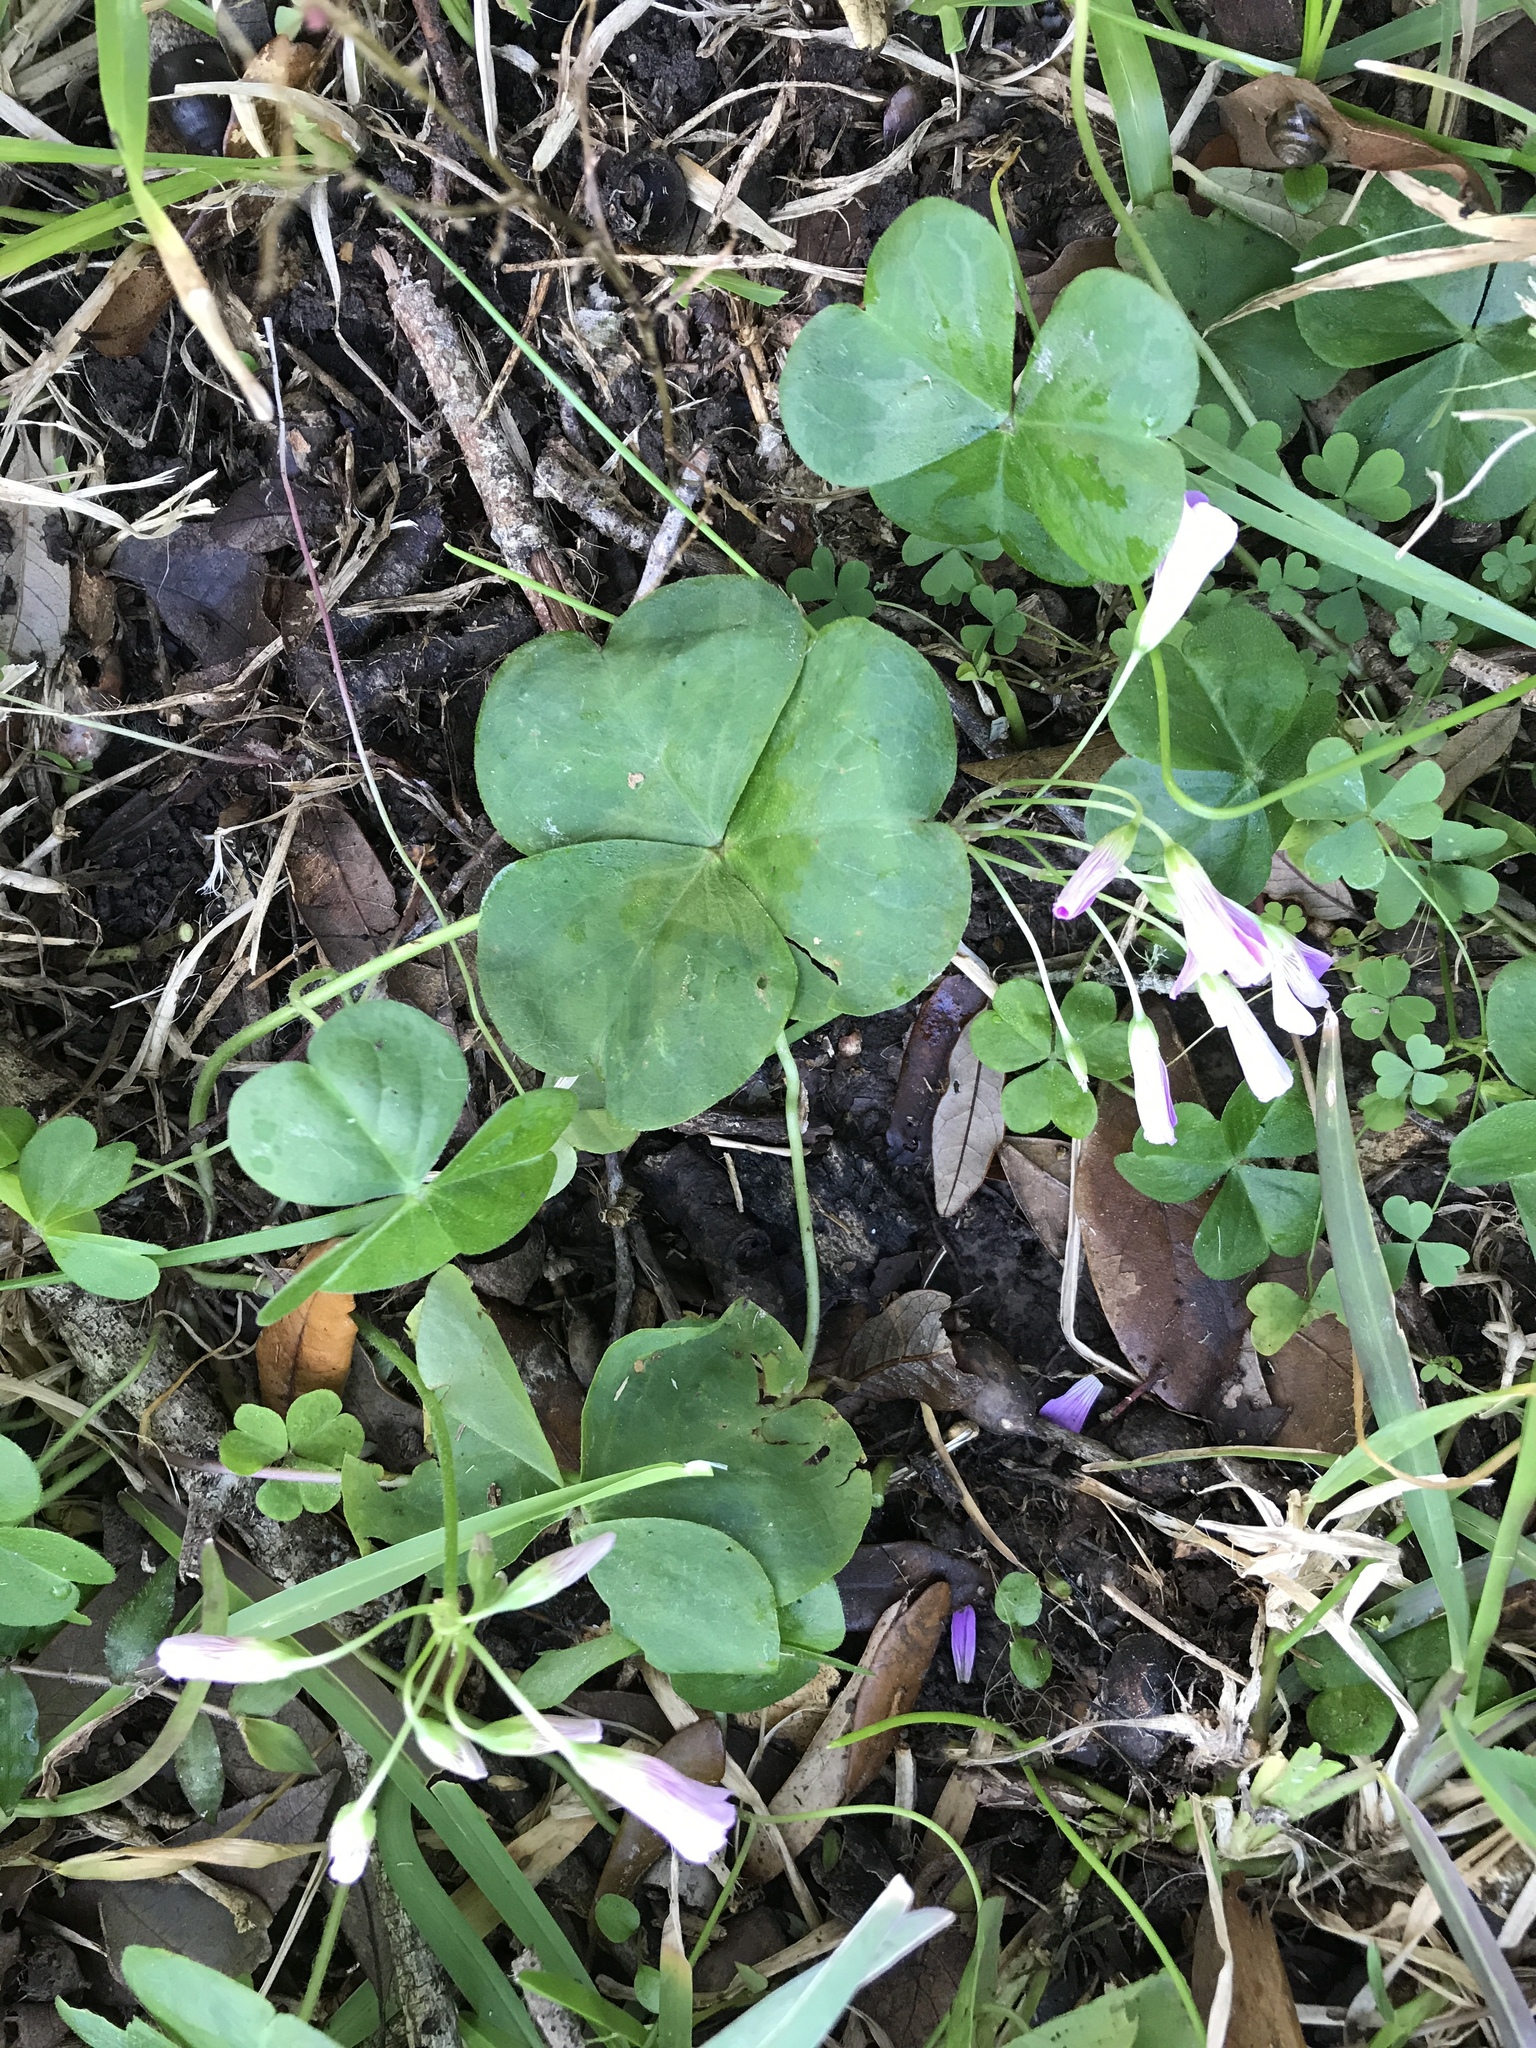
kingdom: Plantae
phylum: Tracheophyta
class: Magnoliopsida
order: Oxalidales
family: Oxalidaceae
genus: Oxalis
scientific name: Oxalis debilis
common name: Large-flowered pink-sorrel
